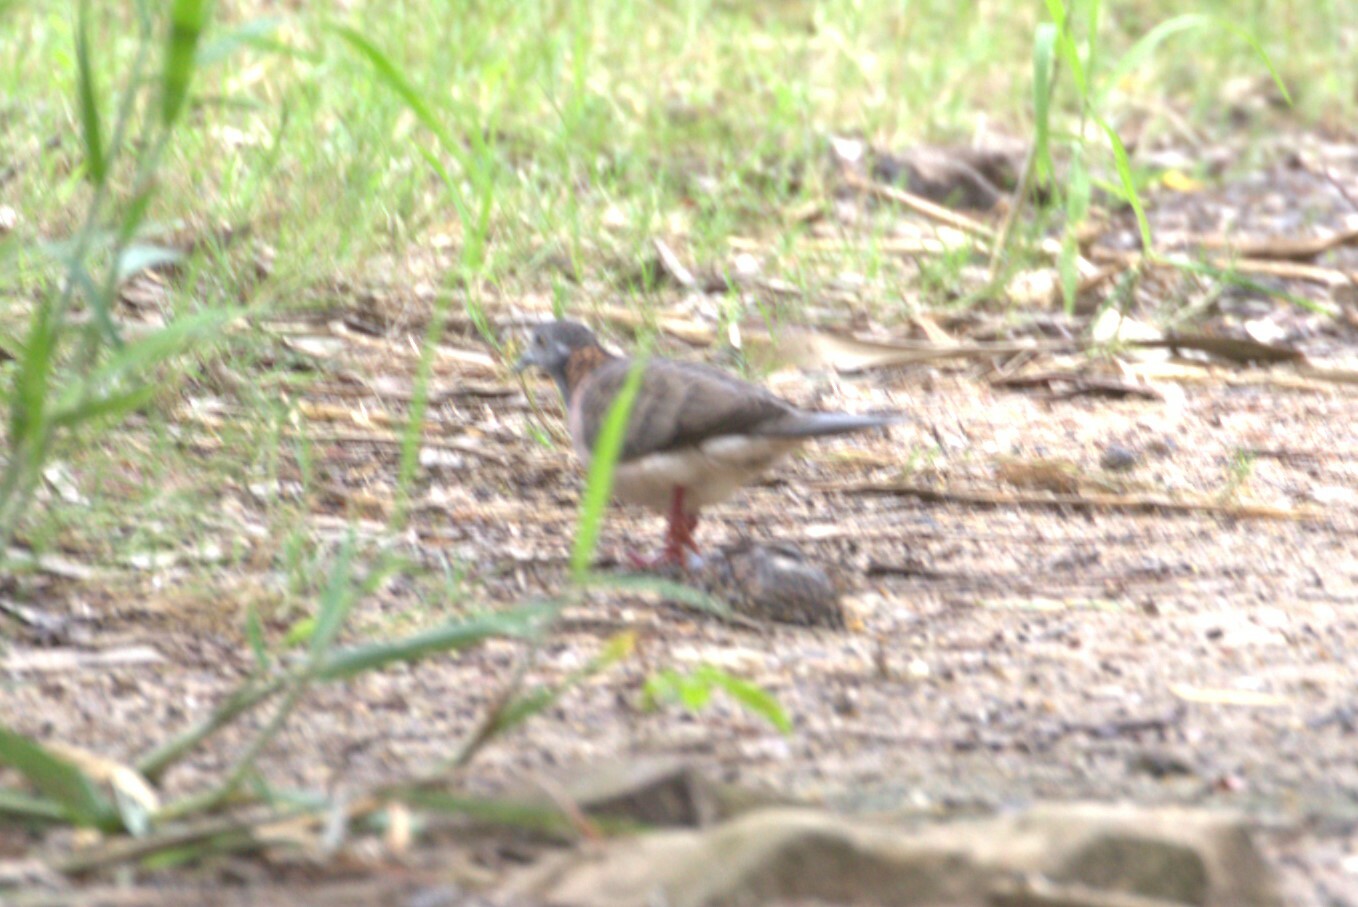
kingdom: Animalia
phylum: Chordata
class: Aves
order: Columbiformes
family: Columbidae
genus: Geopelia
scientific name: Geopelia humeralis
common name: Bar-shouldered dove
